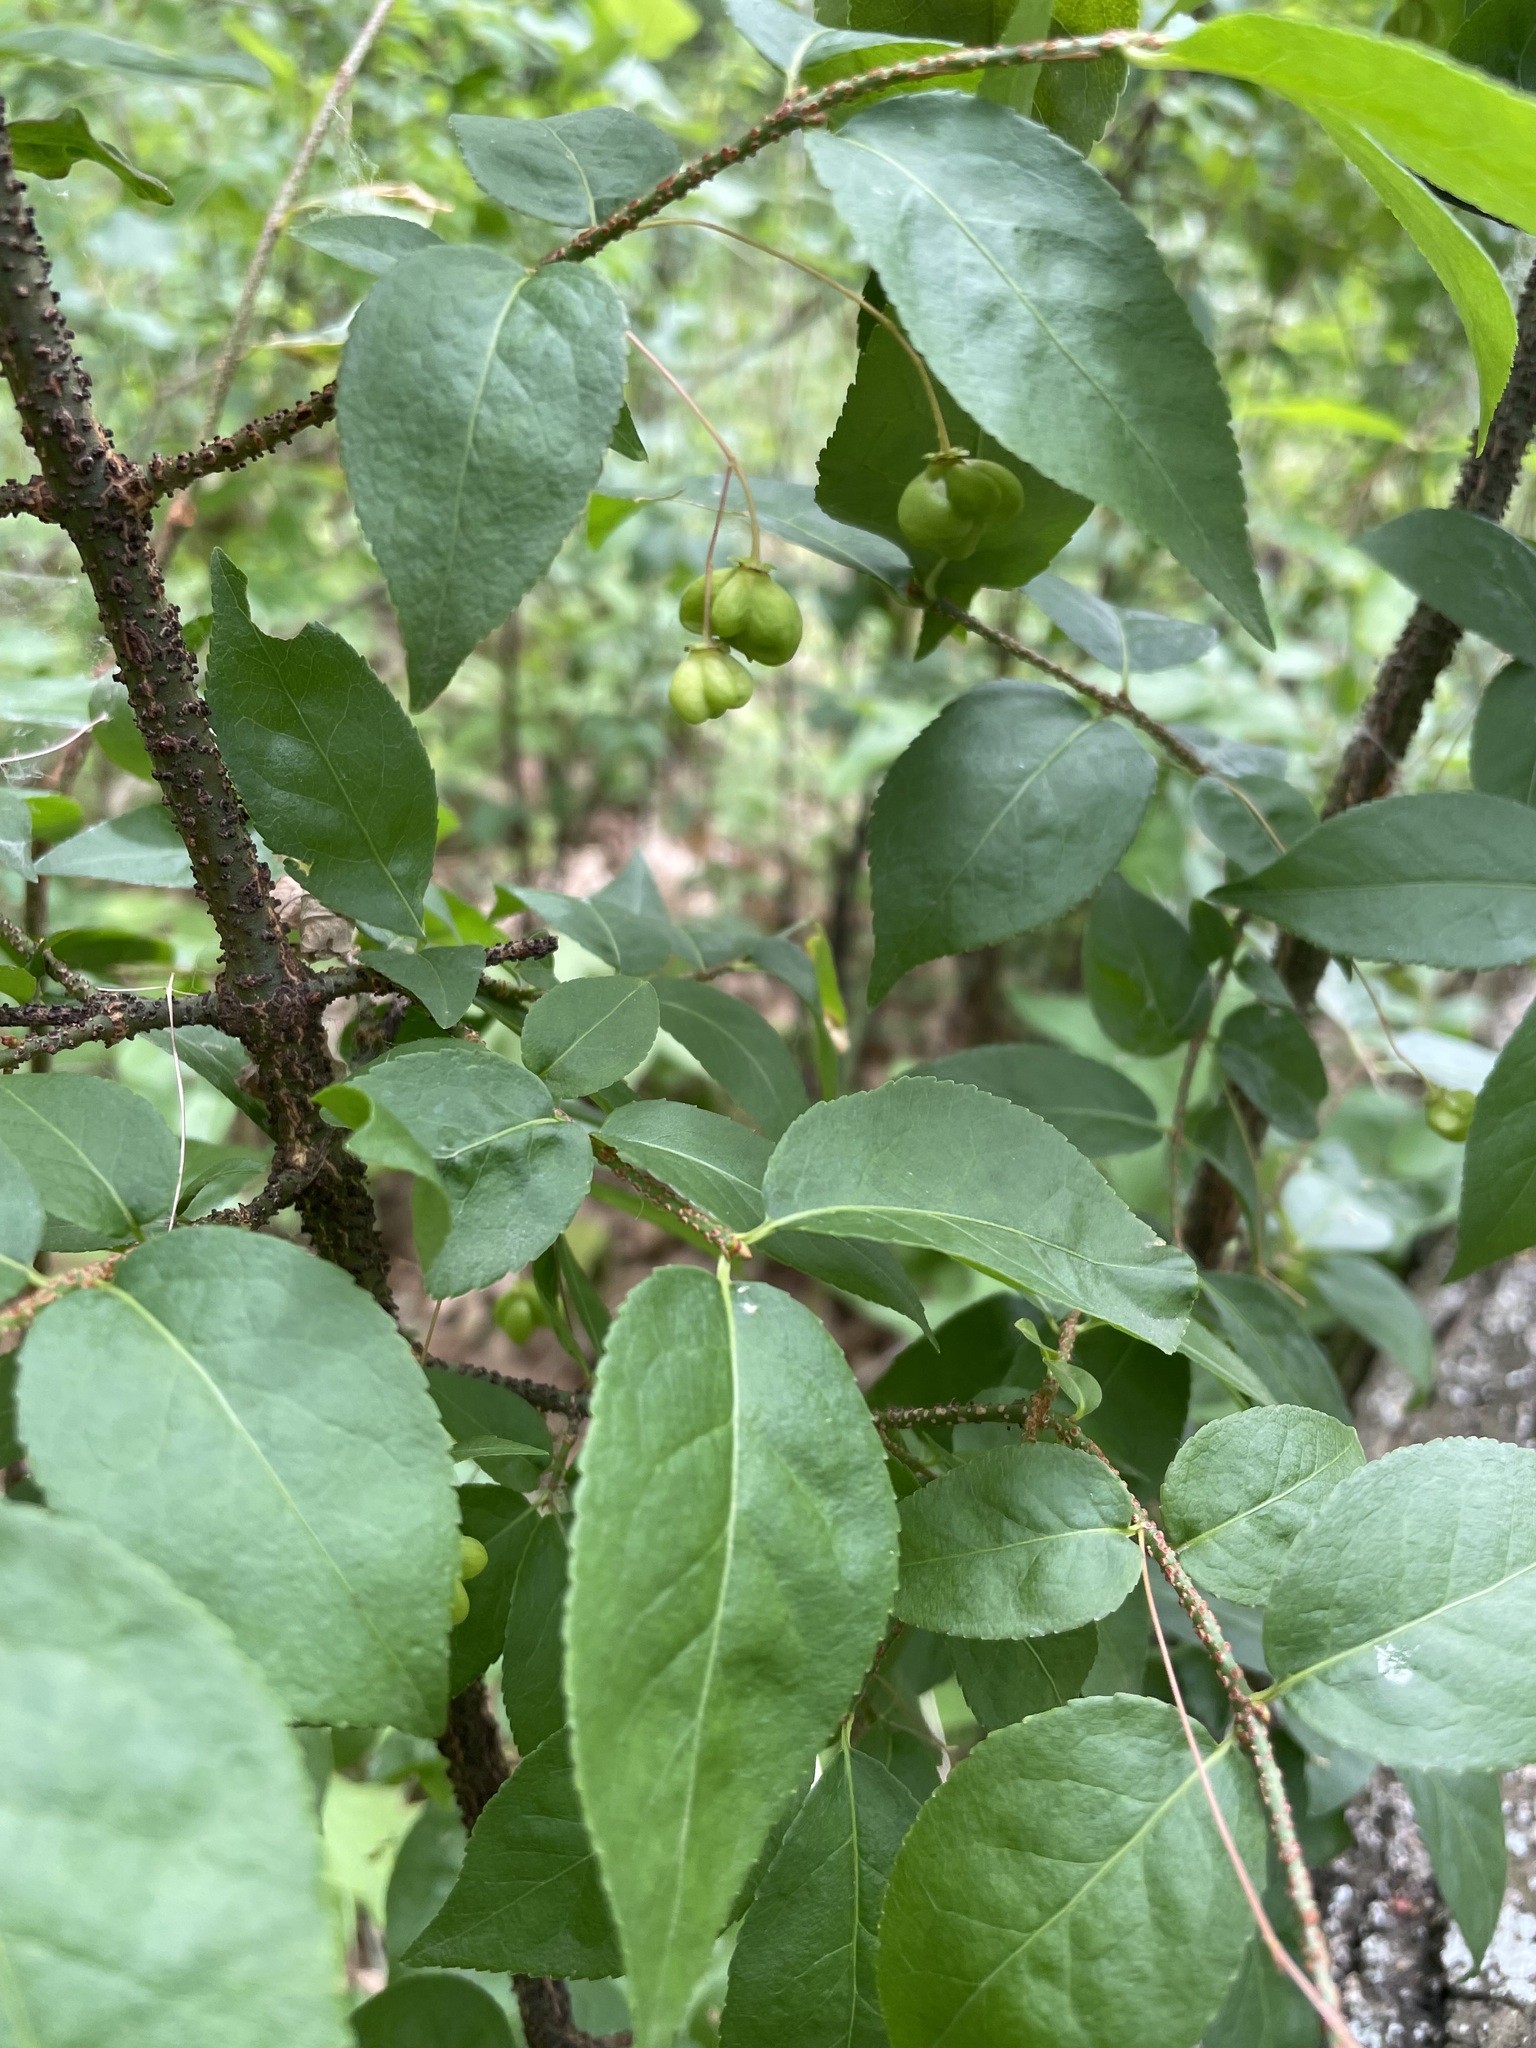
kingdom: Plantae
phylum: Tracheophyta
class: Magnoliopsida
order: Celastrales
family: Celastraceae
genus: Euonymus
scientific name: Euonymus verrucosus
